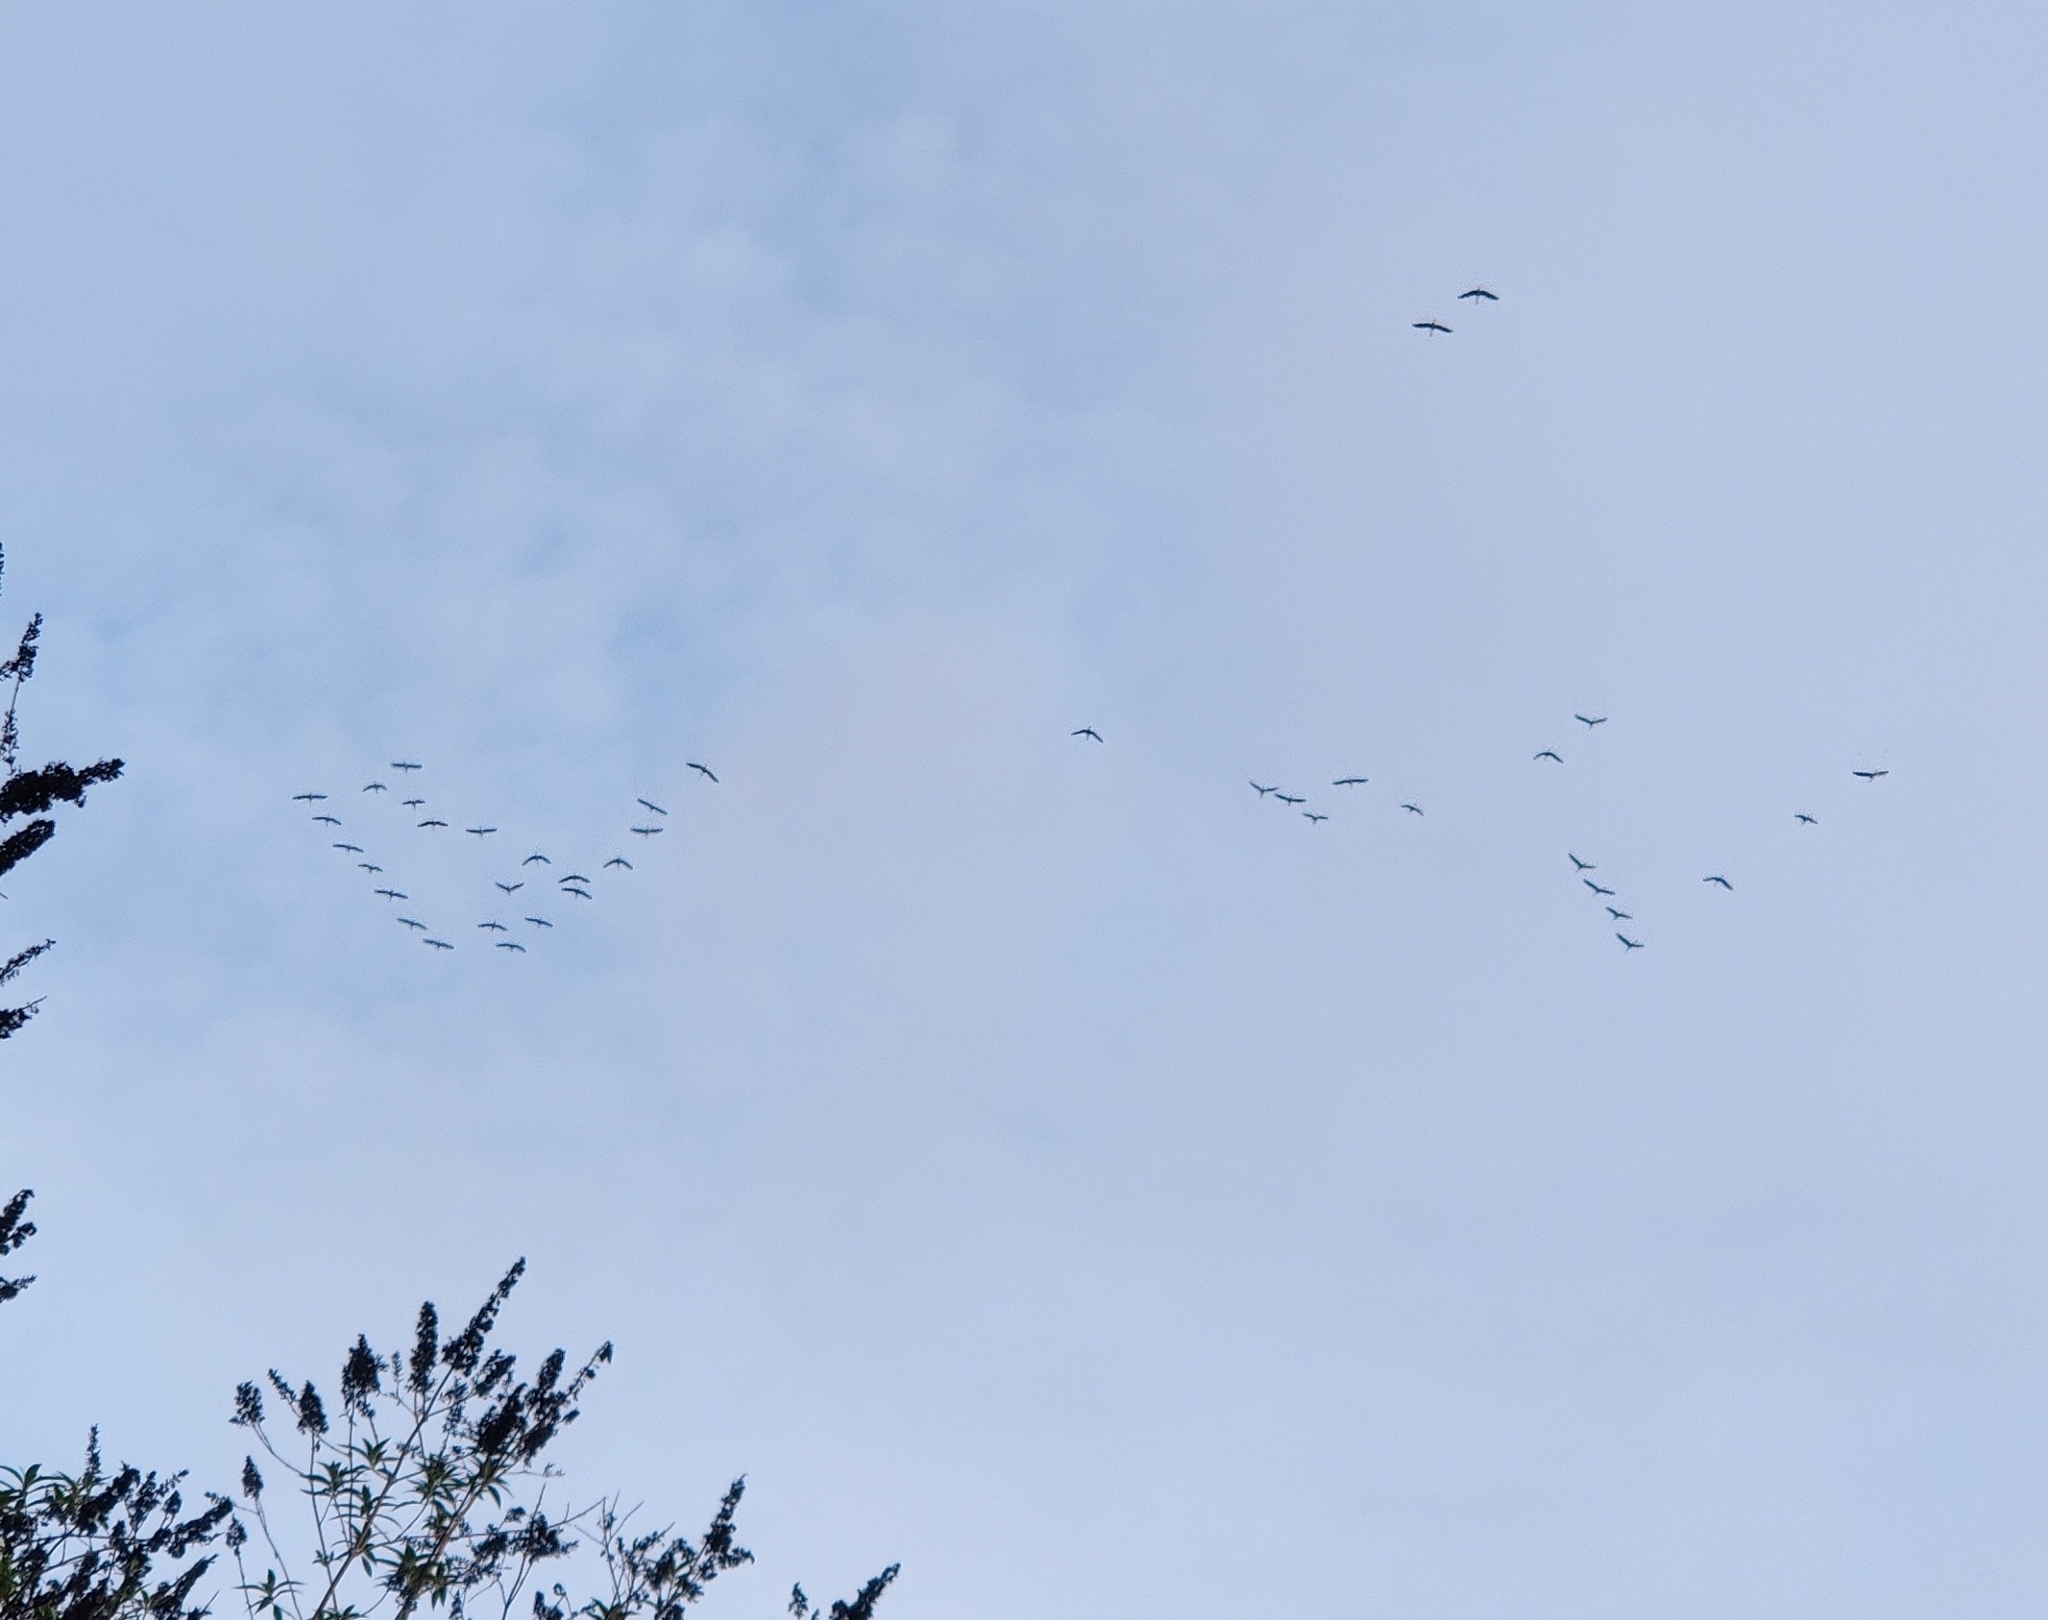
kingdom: Animalia
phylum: Chordata
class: Aves
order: Gruiformes
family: Gruidae
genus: Grus
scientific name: Grus grus
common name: Common crane
